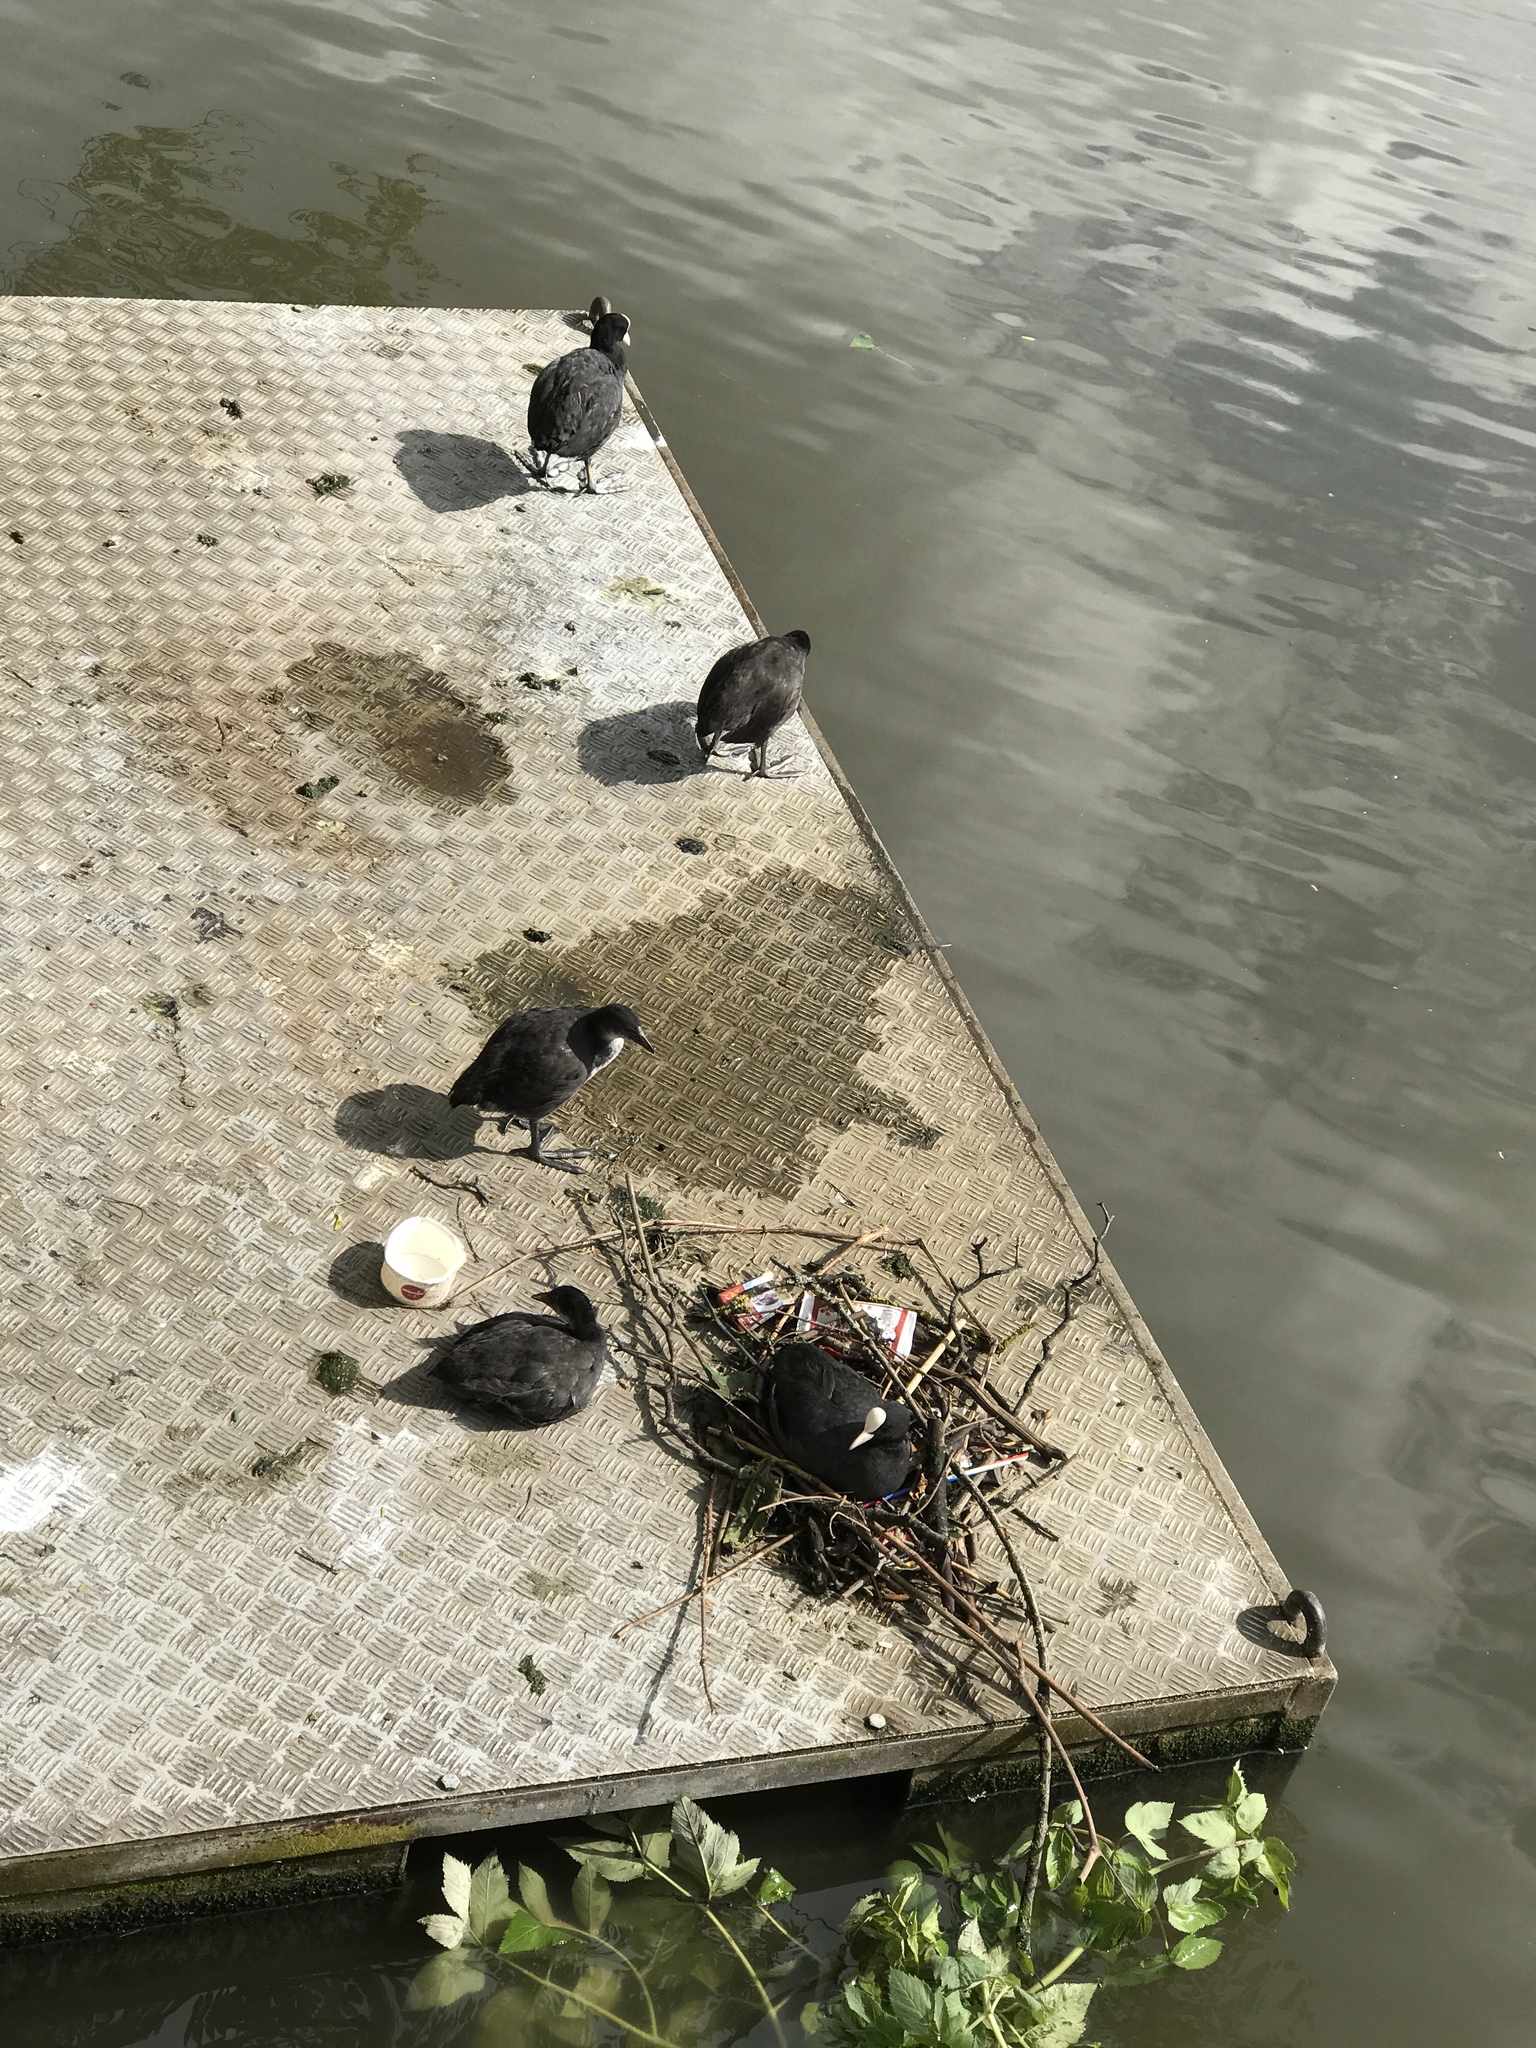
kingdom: Animalia
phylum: Chordata
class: Aves
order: Gruiformes
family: Rallidae
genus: Fulica
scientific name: Fulica atra
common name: Eurasian coot
